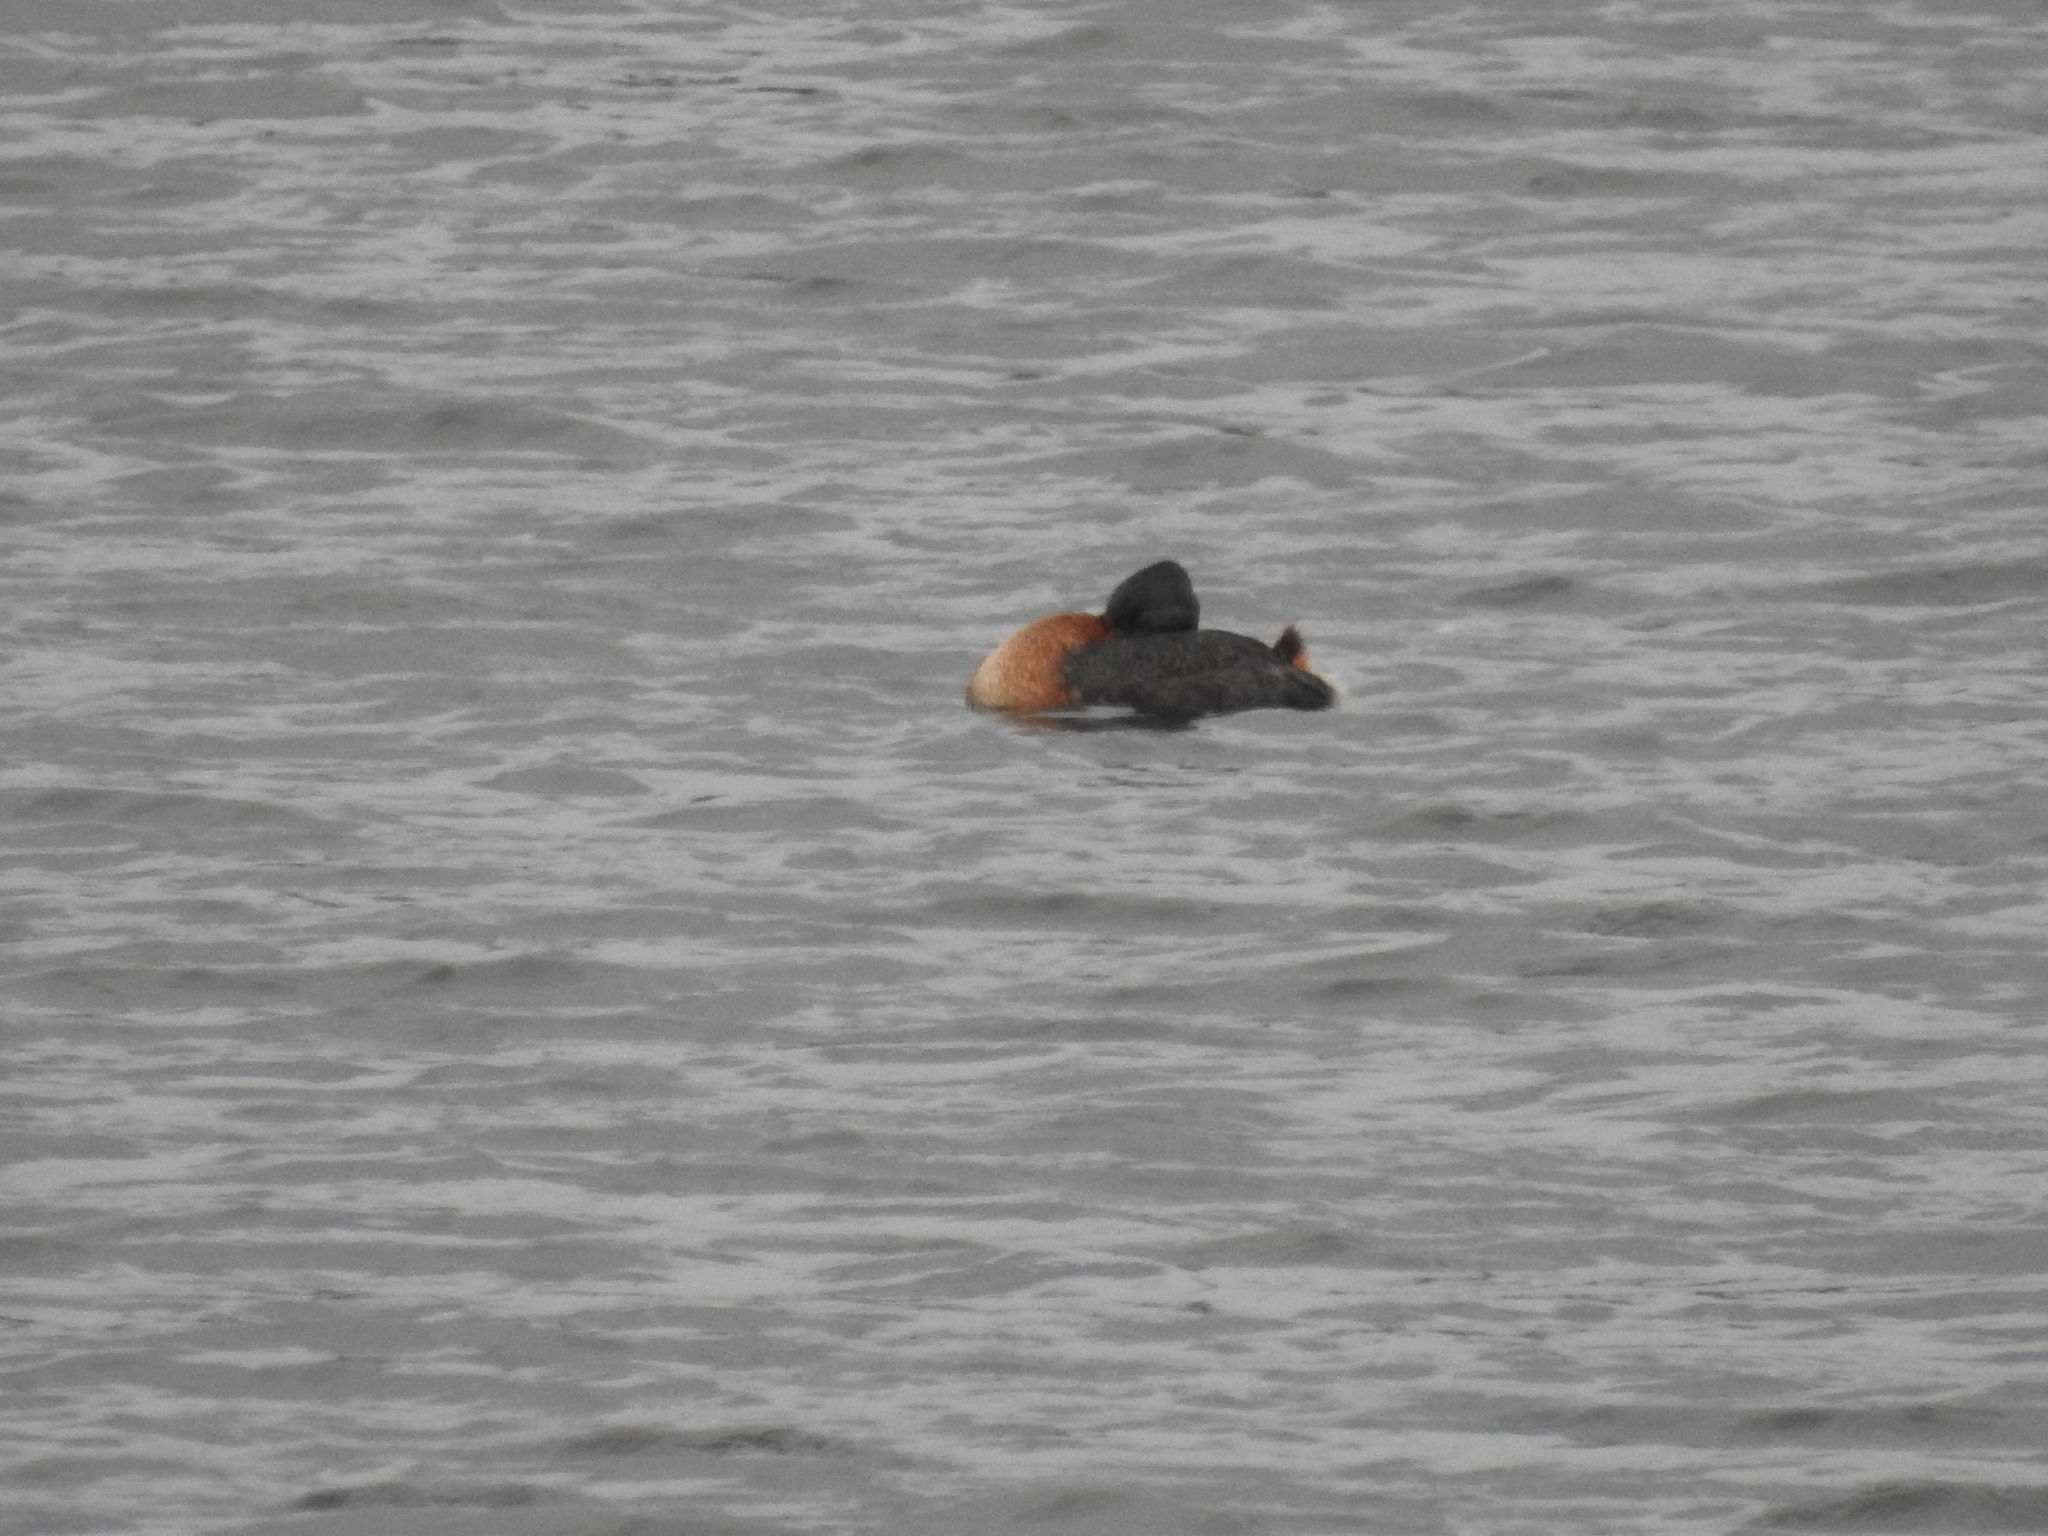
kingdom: Animalia
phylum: Chordata
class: Aves
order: Podicipediformes
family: Podicipedidae
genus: Podiceps
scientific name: Podiceps major
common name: Great grebe
